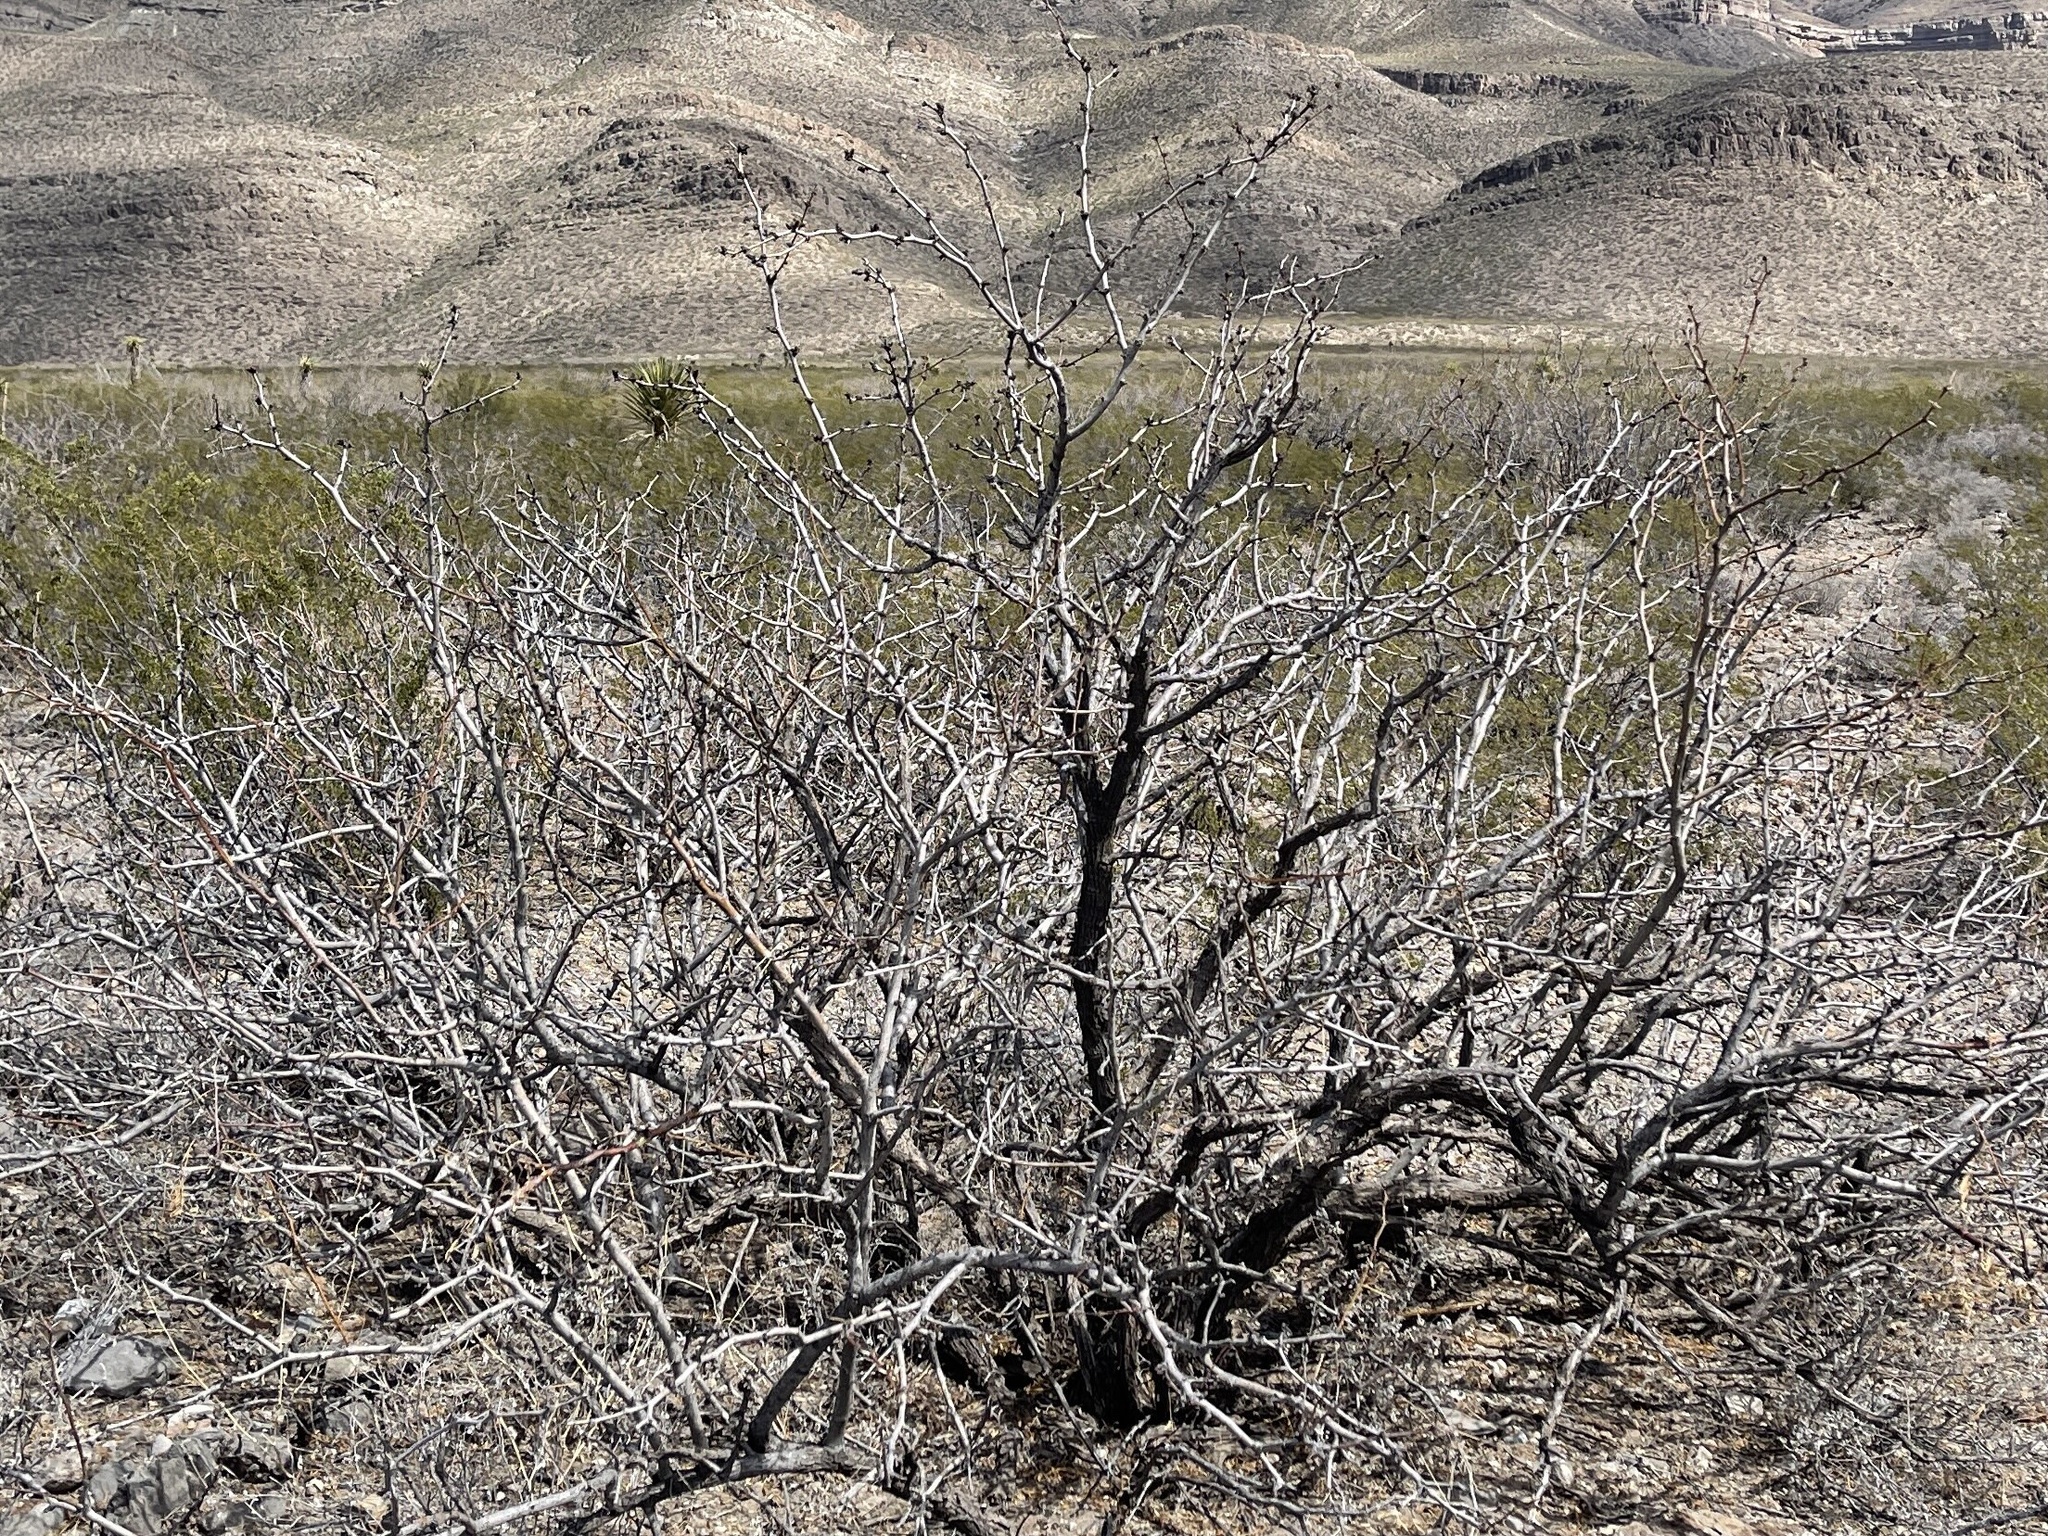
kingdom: Plantae
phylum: Tracheophyta
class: Magnoliopsida
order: Fabales
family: Fabaceae
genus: Prosopis
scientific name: Prosopis glandulosa
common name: Honey mesquite
